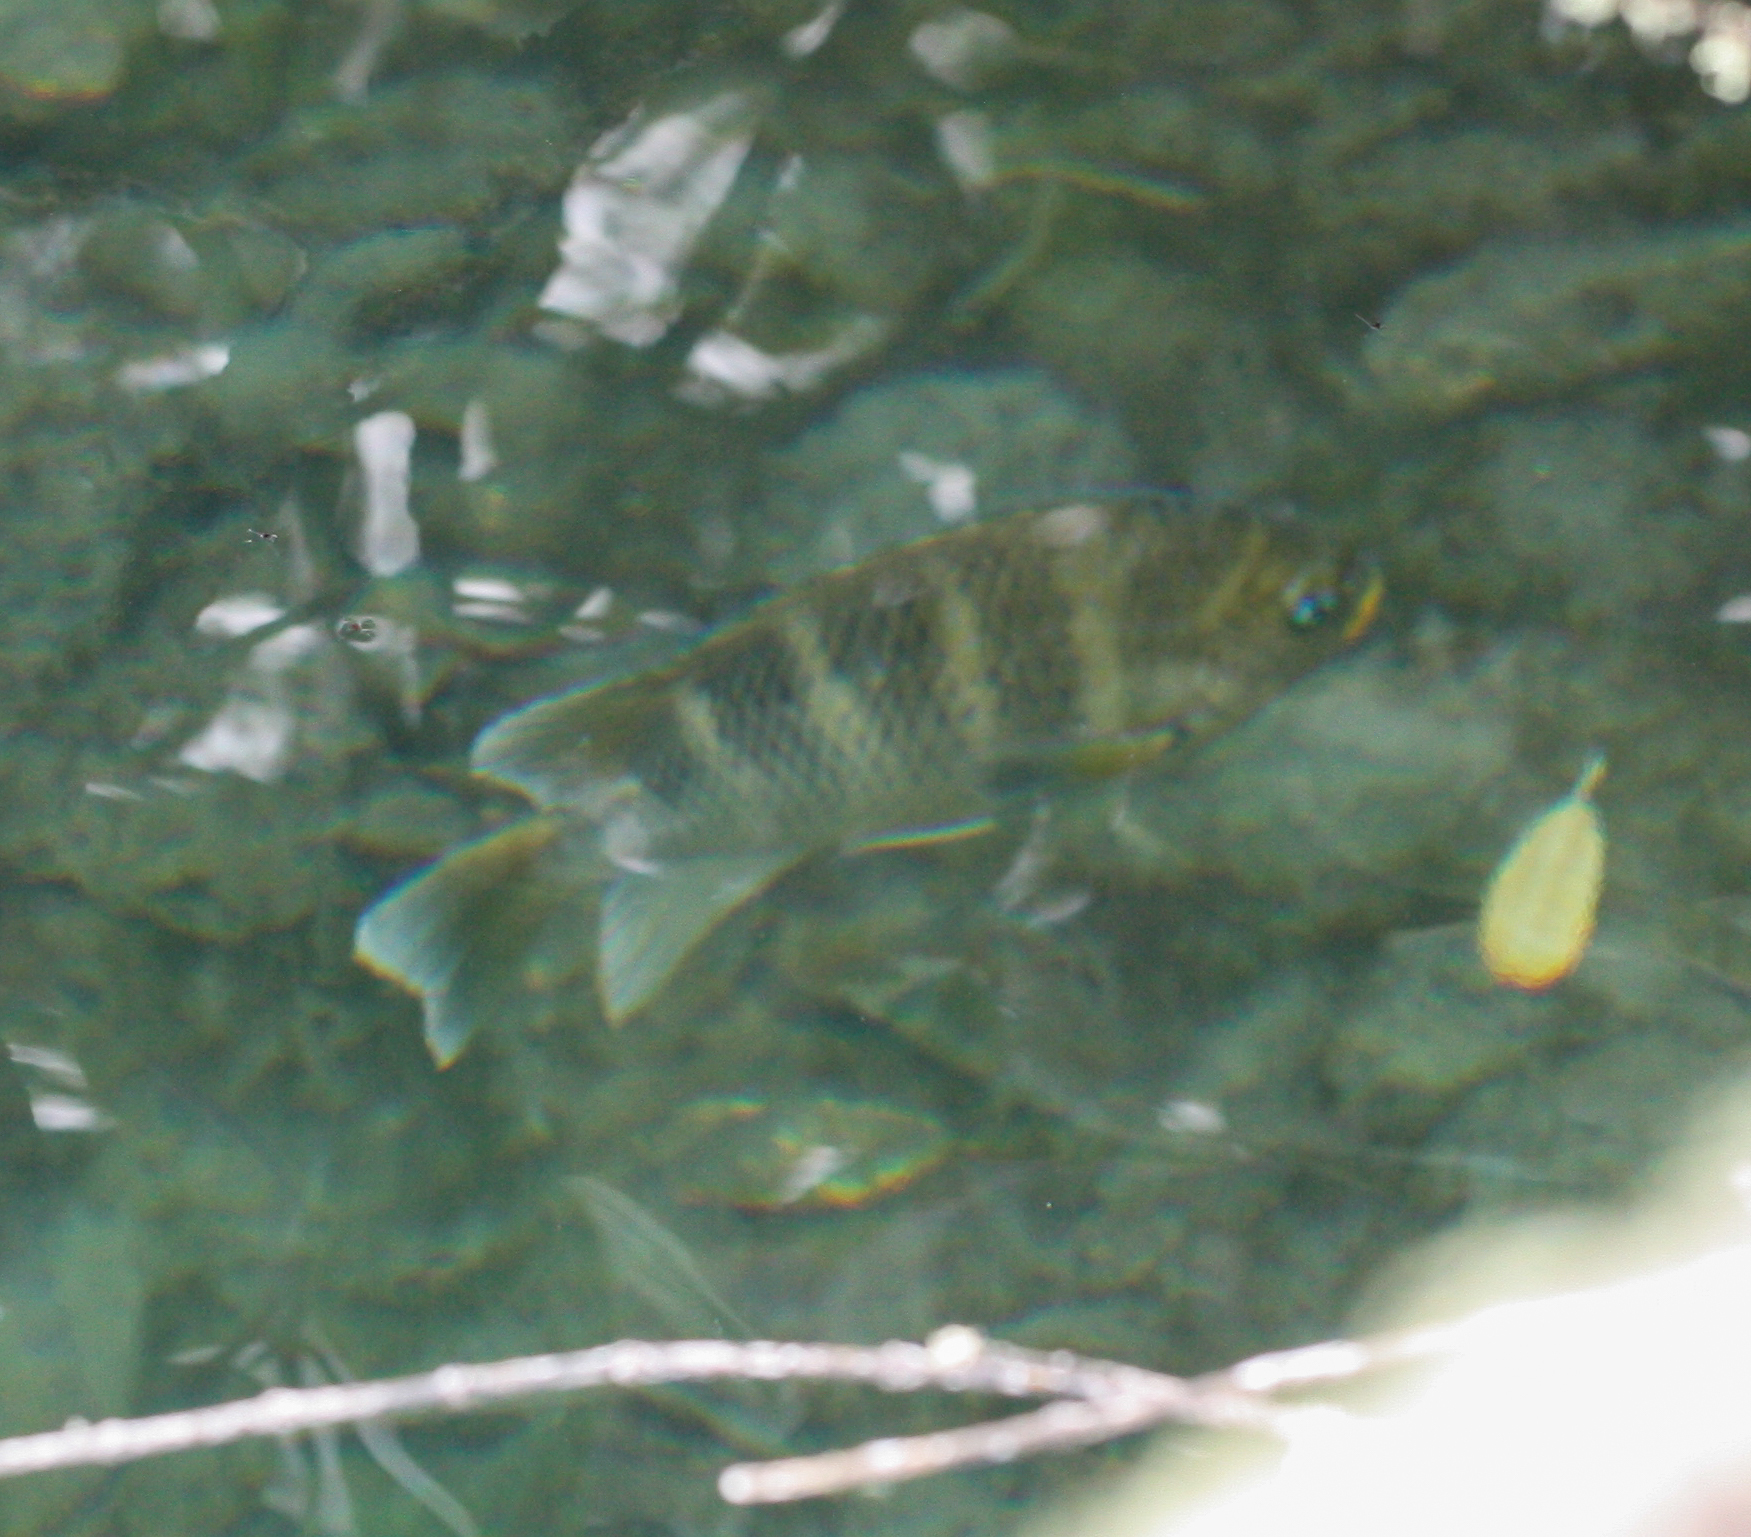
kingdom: Animalia
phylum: Chordata
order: Perciformes
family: Pomacentridae
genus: Abudefduf
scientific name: Abudefduf concolor
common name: Dusky seargent
